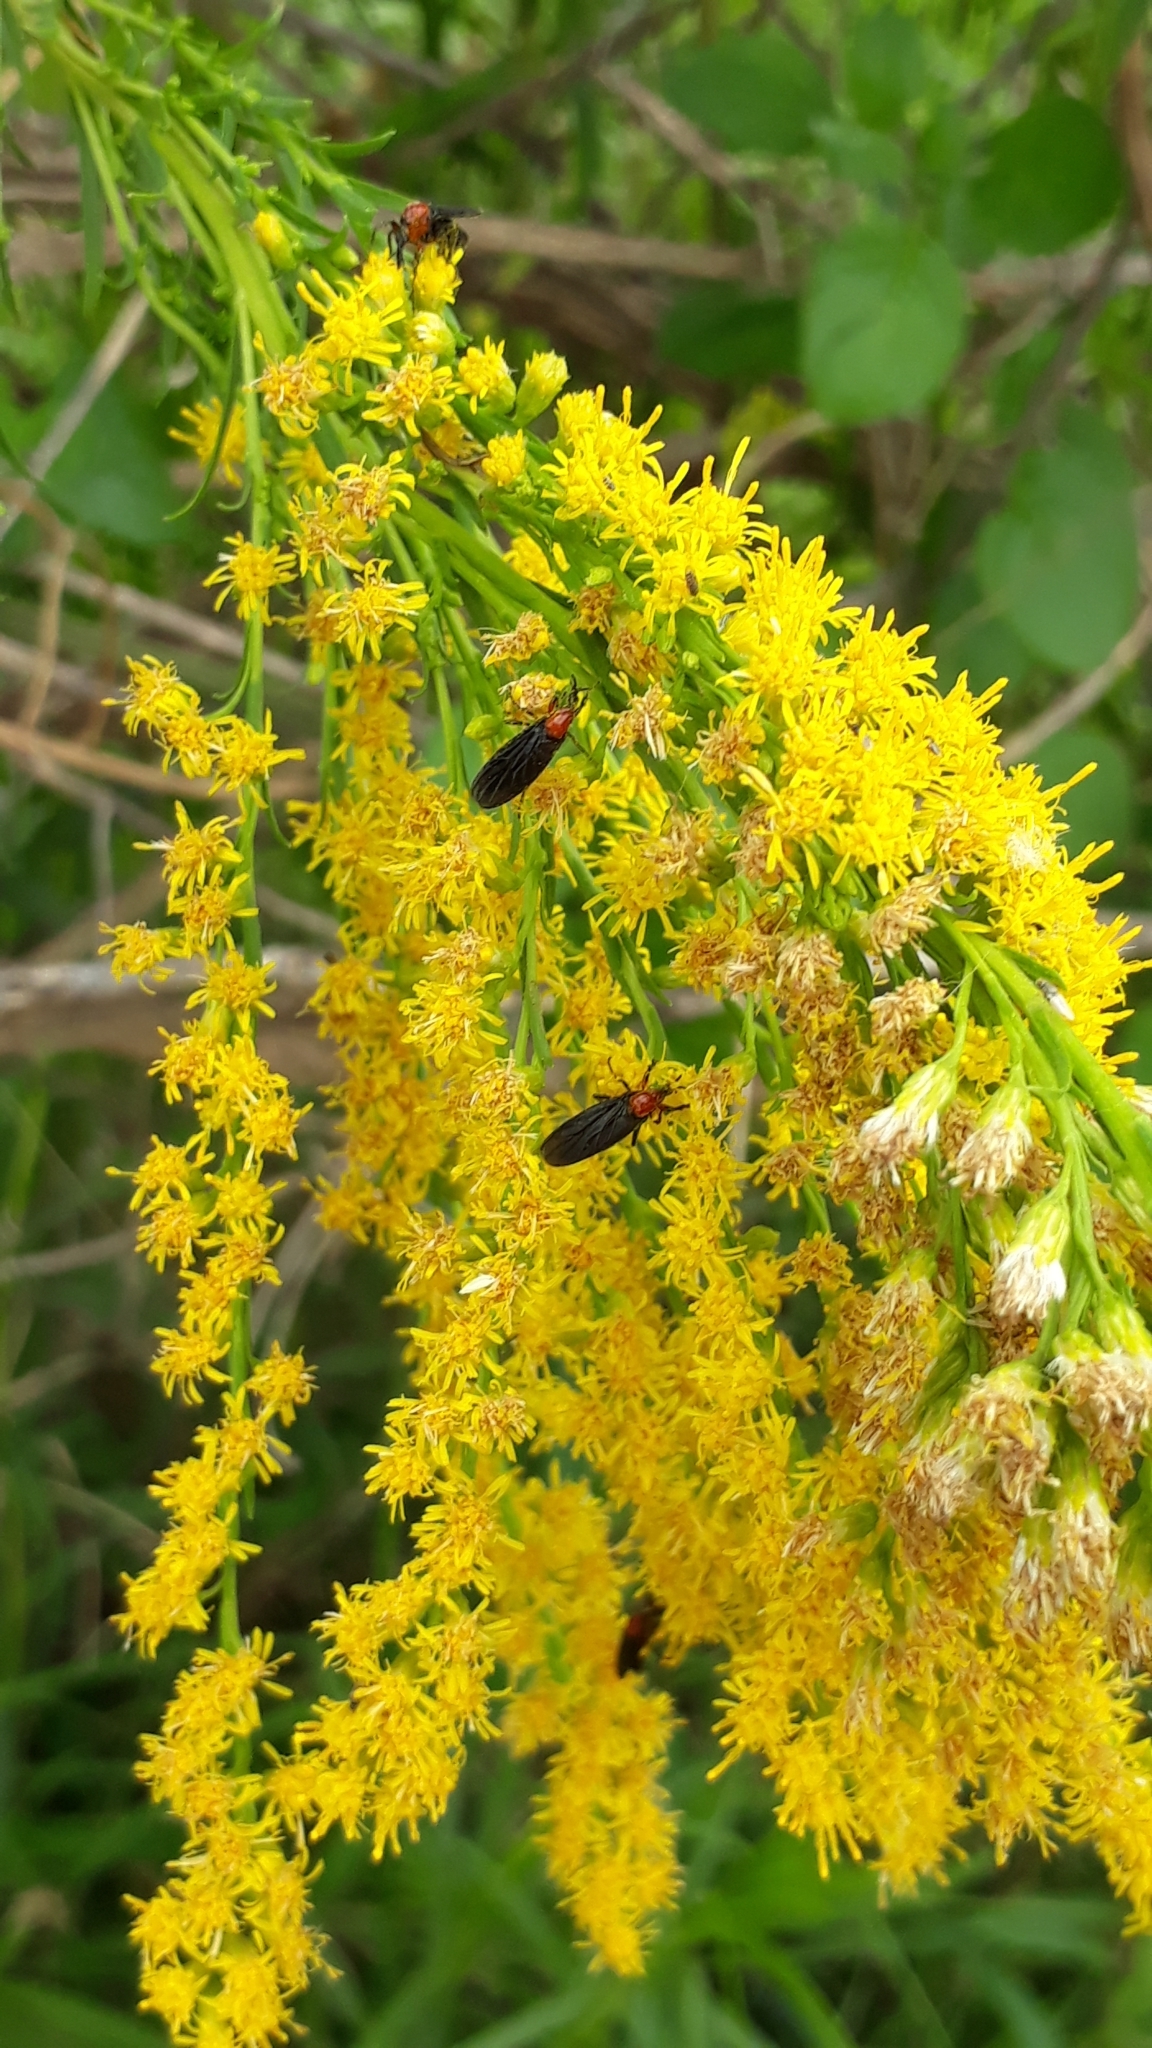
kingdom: Animalia
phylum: Arthropoda
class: Insecta
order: Diptera
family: Bibionidae
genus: Dilophus
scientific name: Dilophus pectoralis
